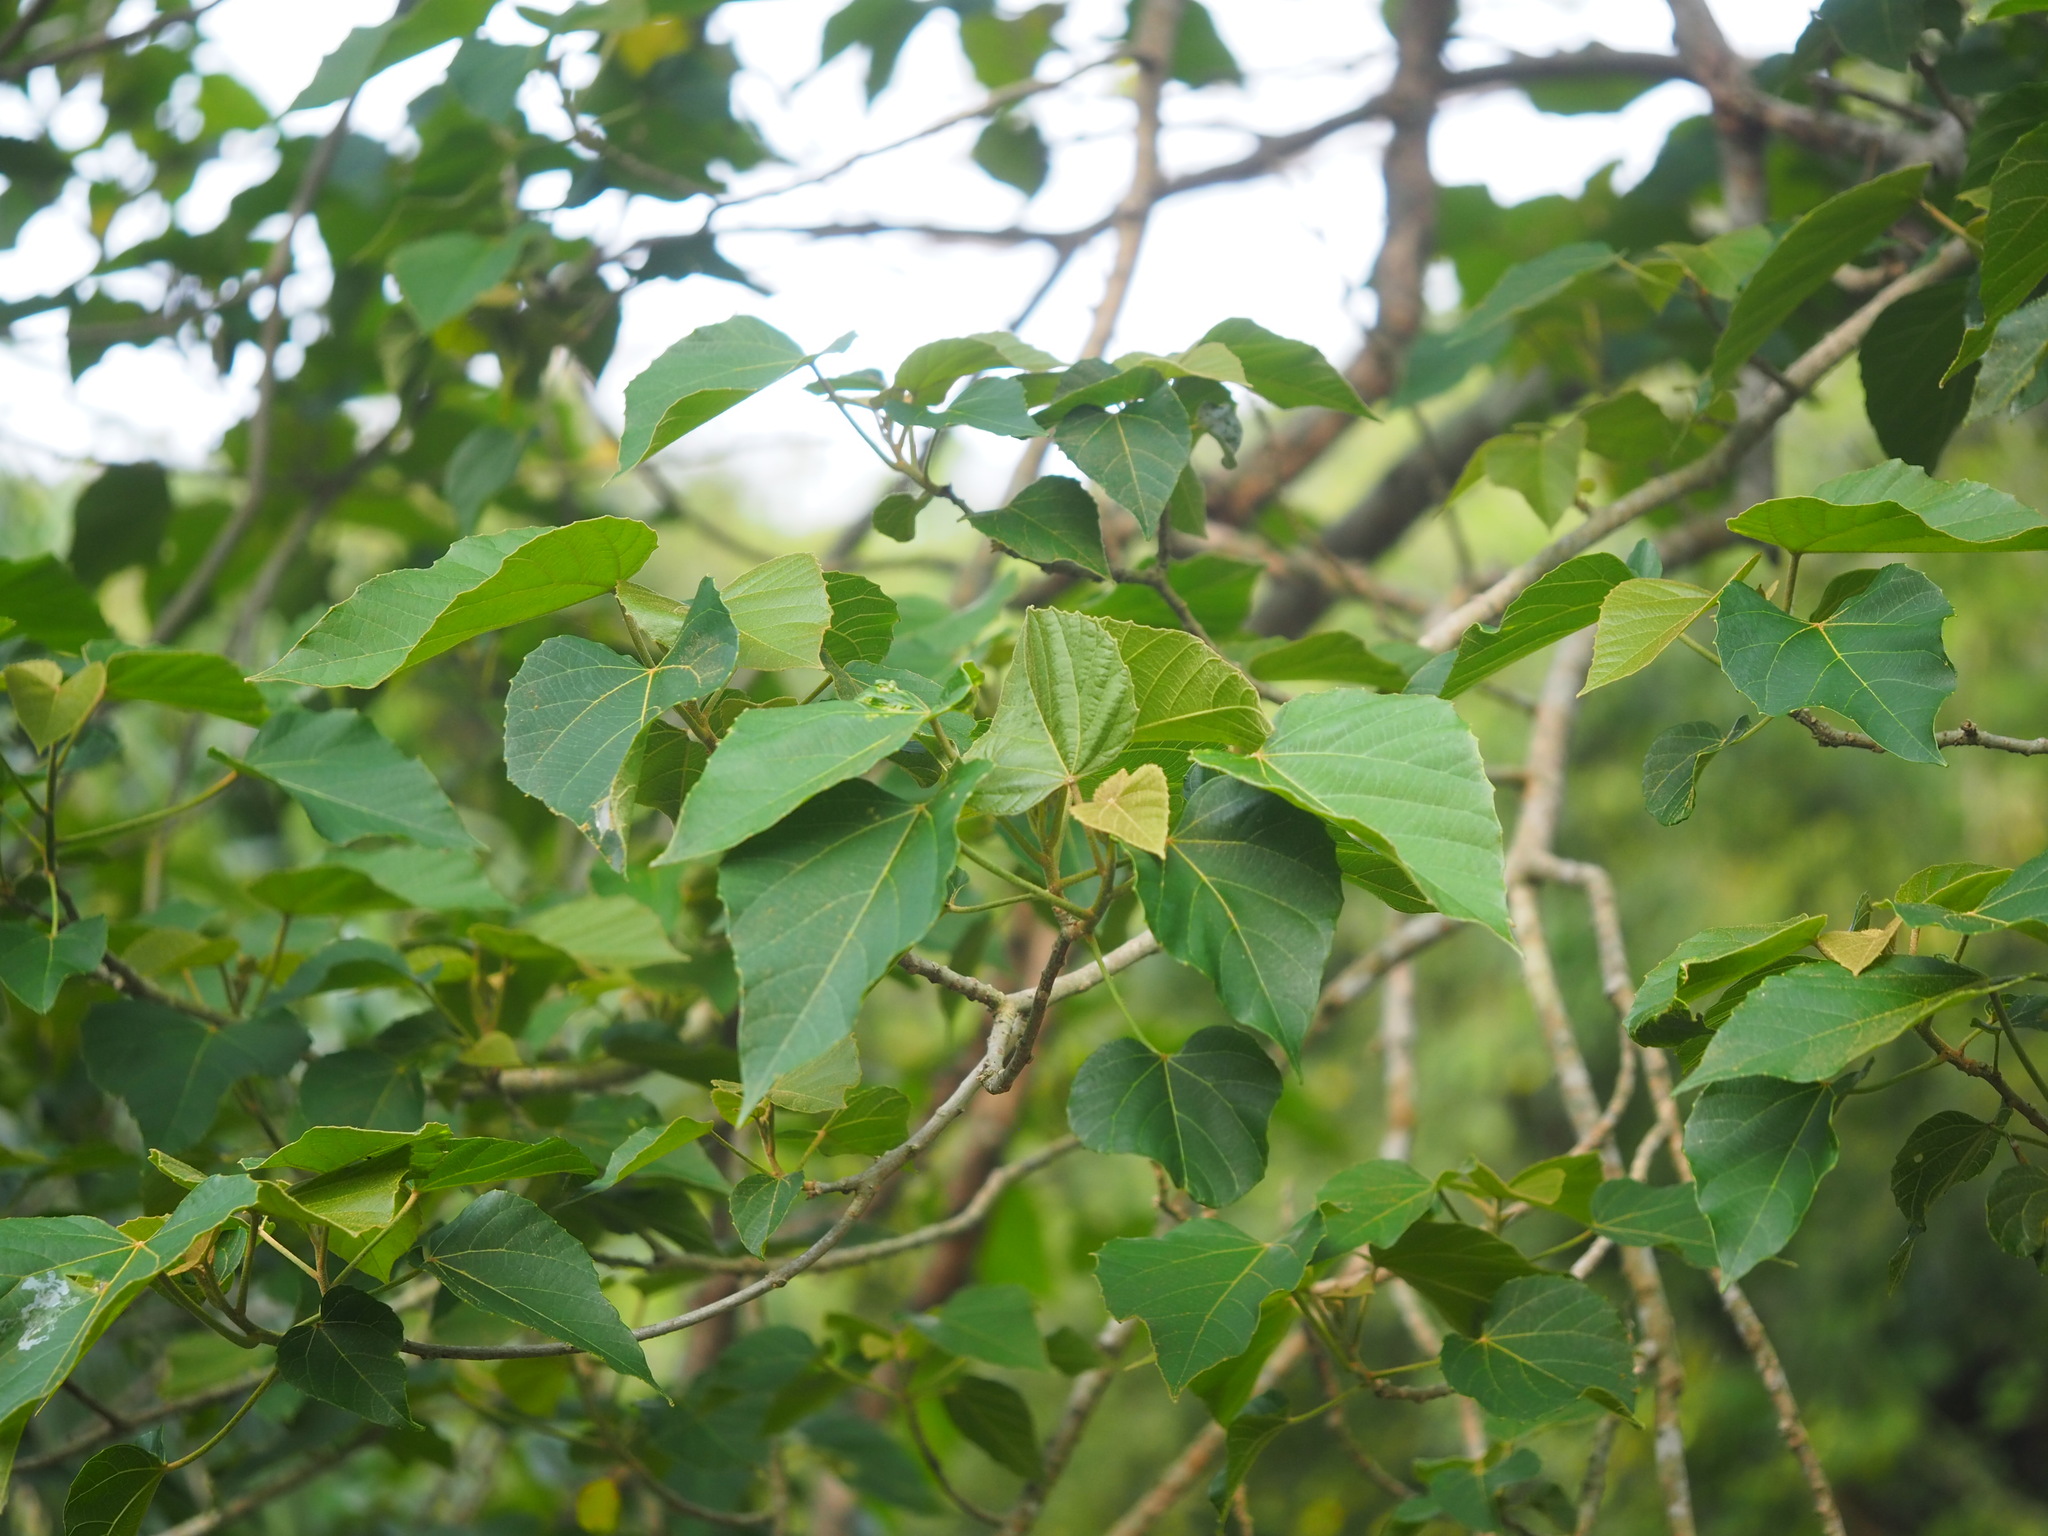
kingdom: Plantae
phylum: Tracheophyta
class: Magnoliopsida
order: Malpighiales
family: Euphorbiaceae
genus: Melanolepis
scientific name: Melanolepis multiglandulosa
